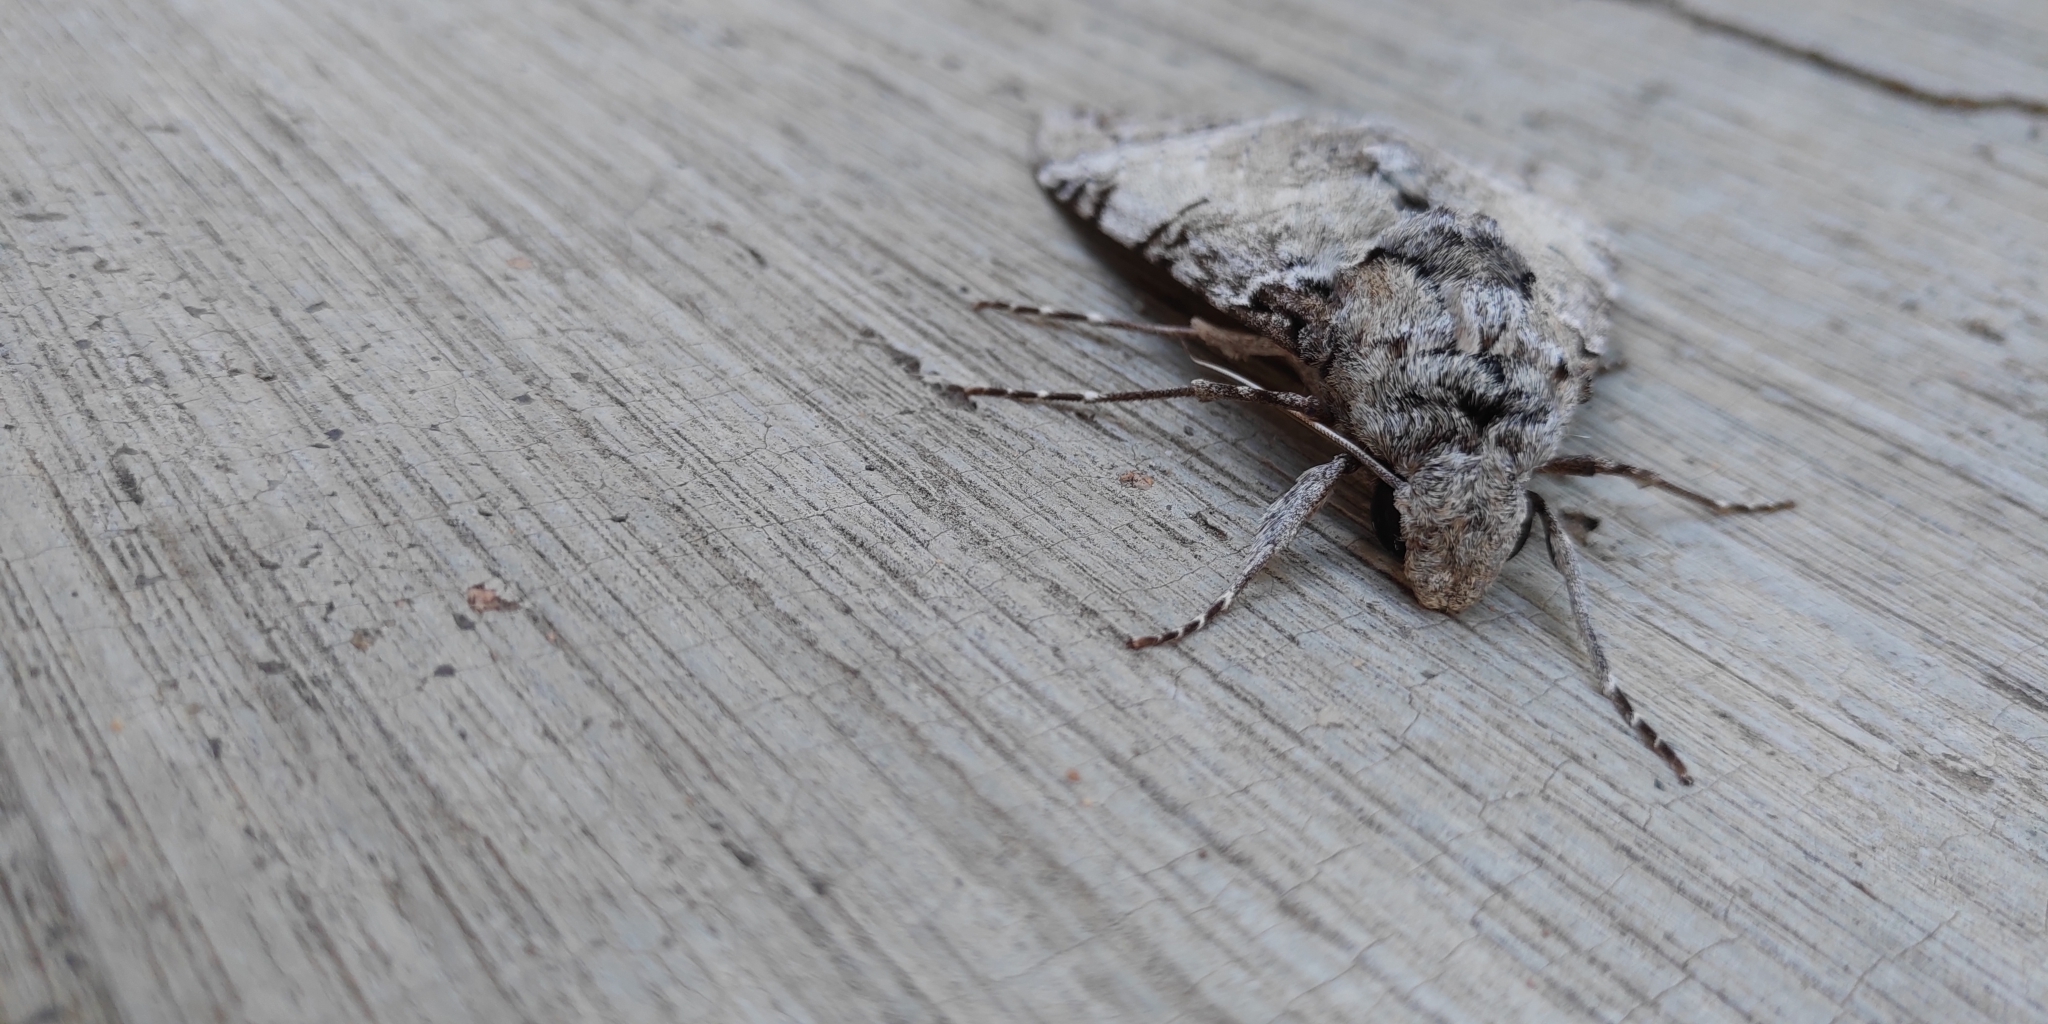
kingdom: Animalia
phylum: Arthropoda
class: Insecta
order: Lepidoptera
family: Sphingidae
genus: Pseudosphinx
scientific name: Pseudosphinx tetrio
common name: Tetrio sphinx
